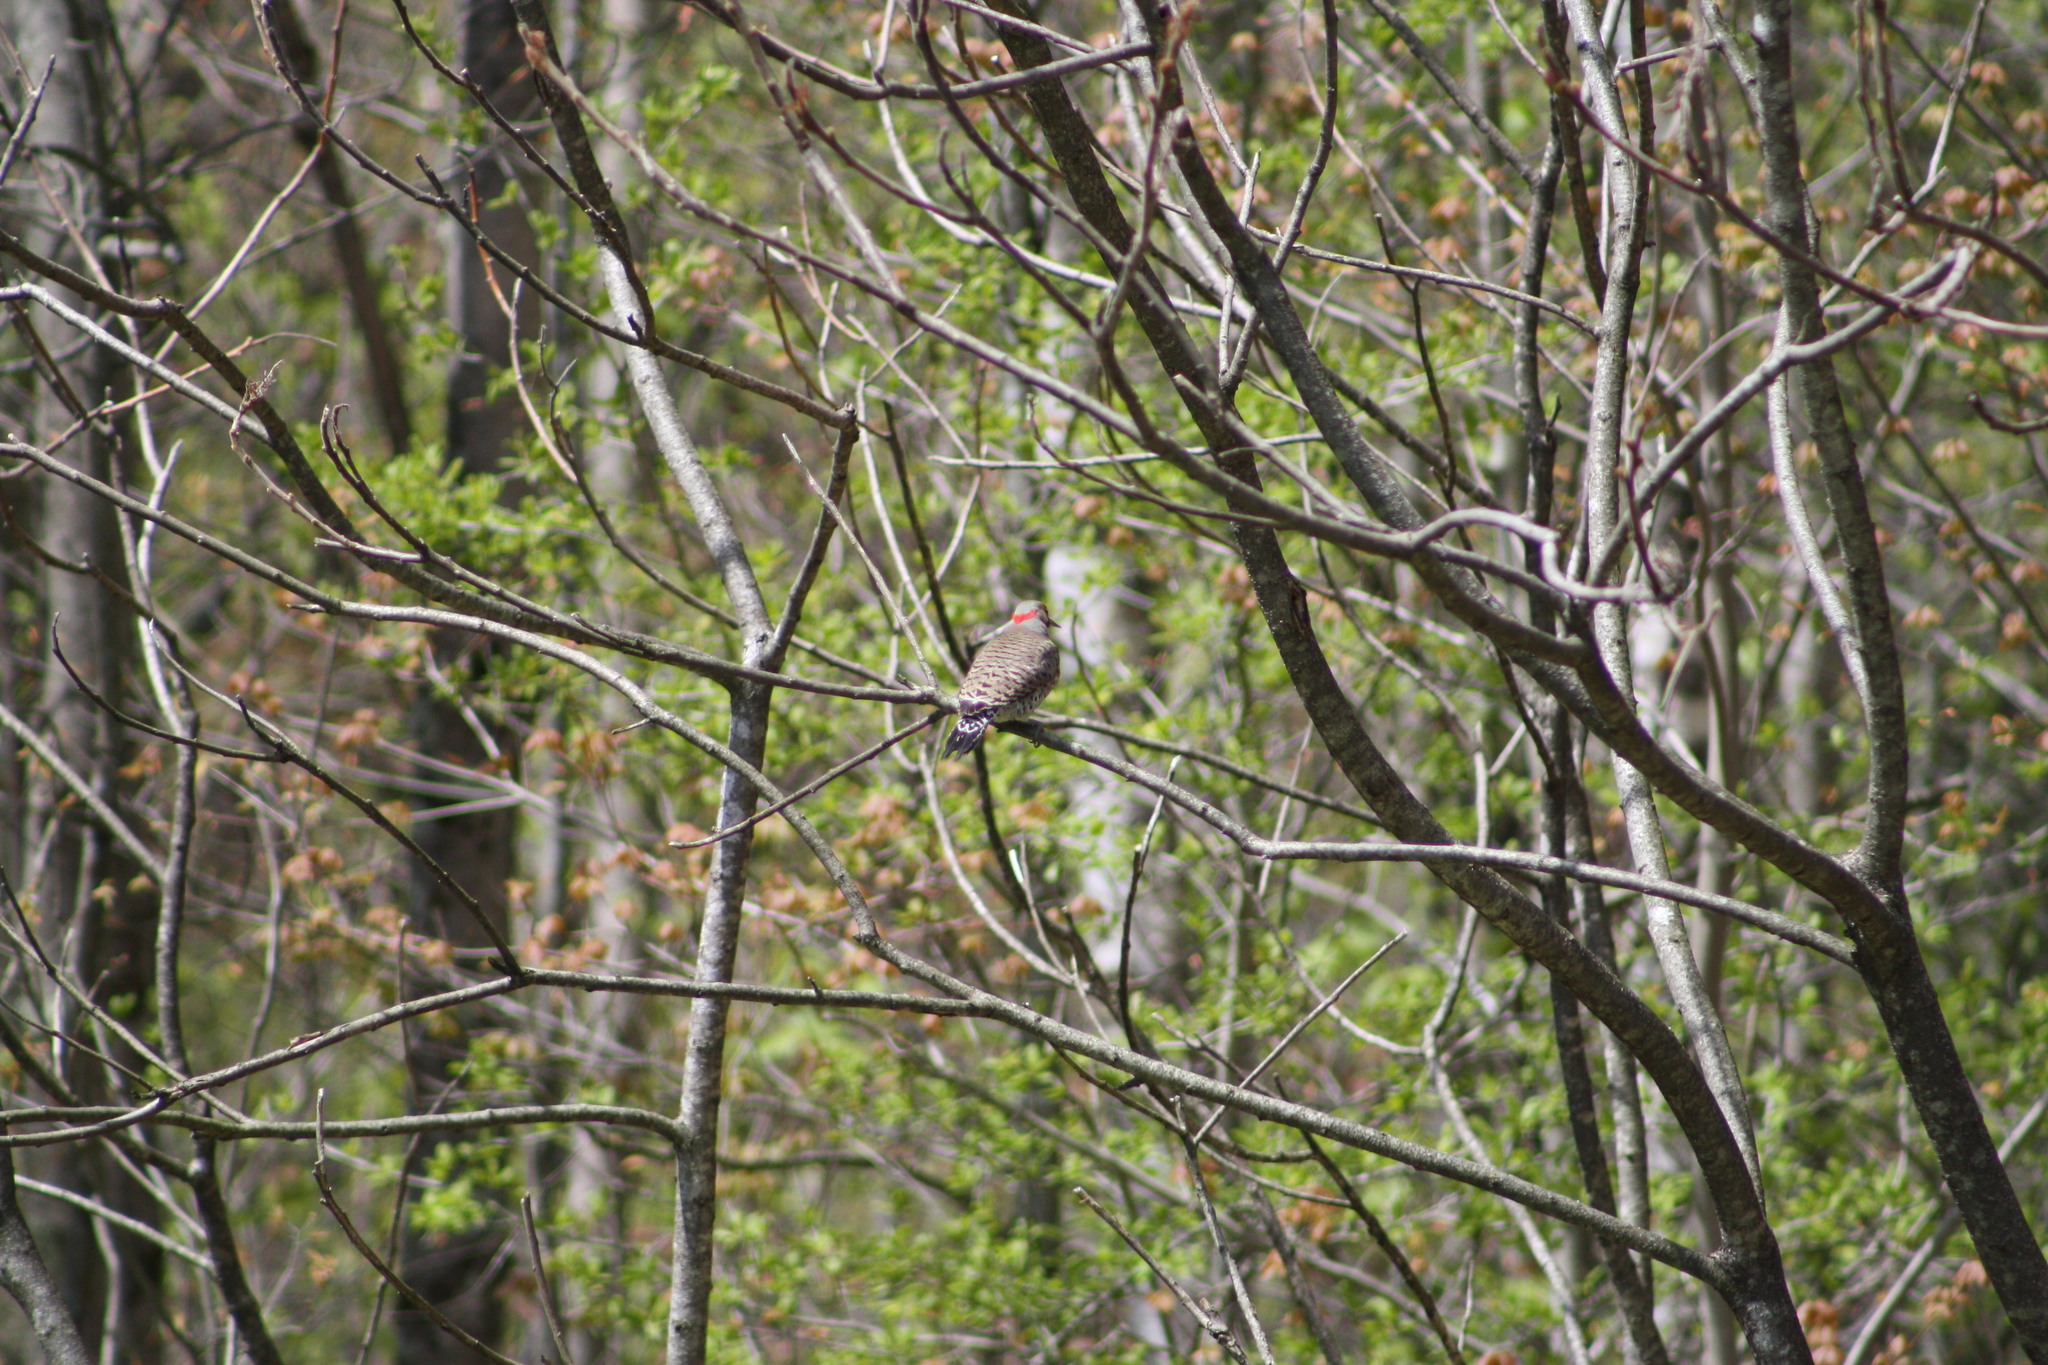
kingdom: Animalia
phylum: Chordata
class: Aves
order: Piciformes
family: Picidae
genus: Colaptes
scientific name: Colaptes auratus
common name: Northern flicker
